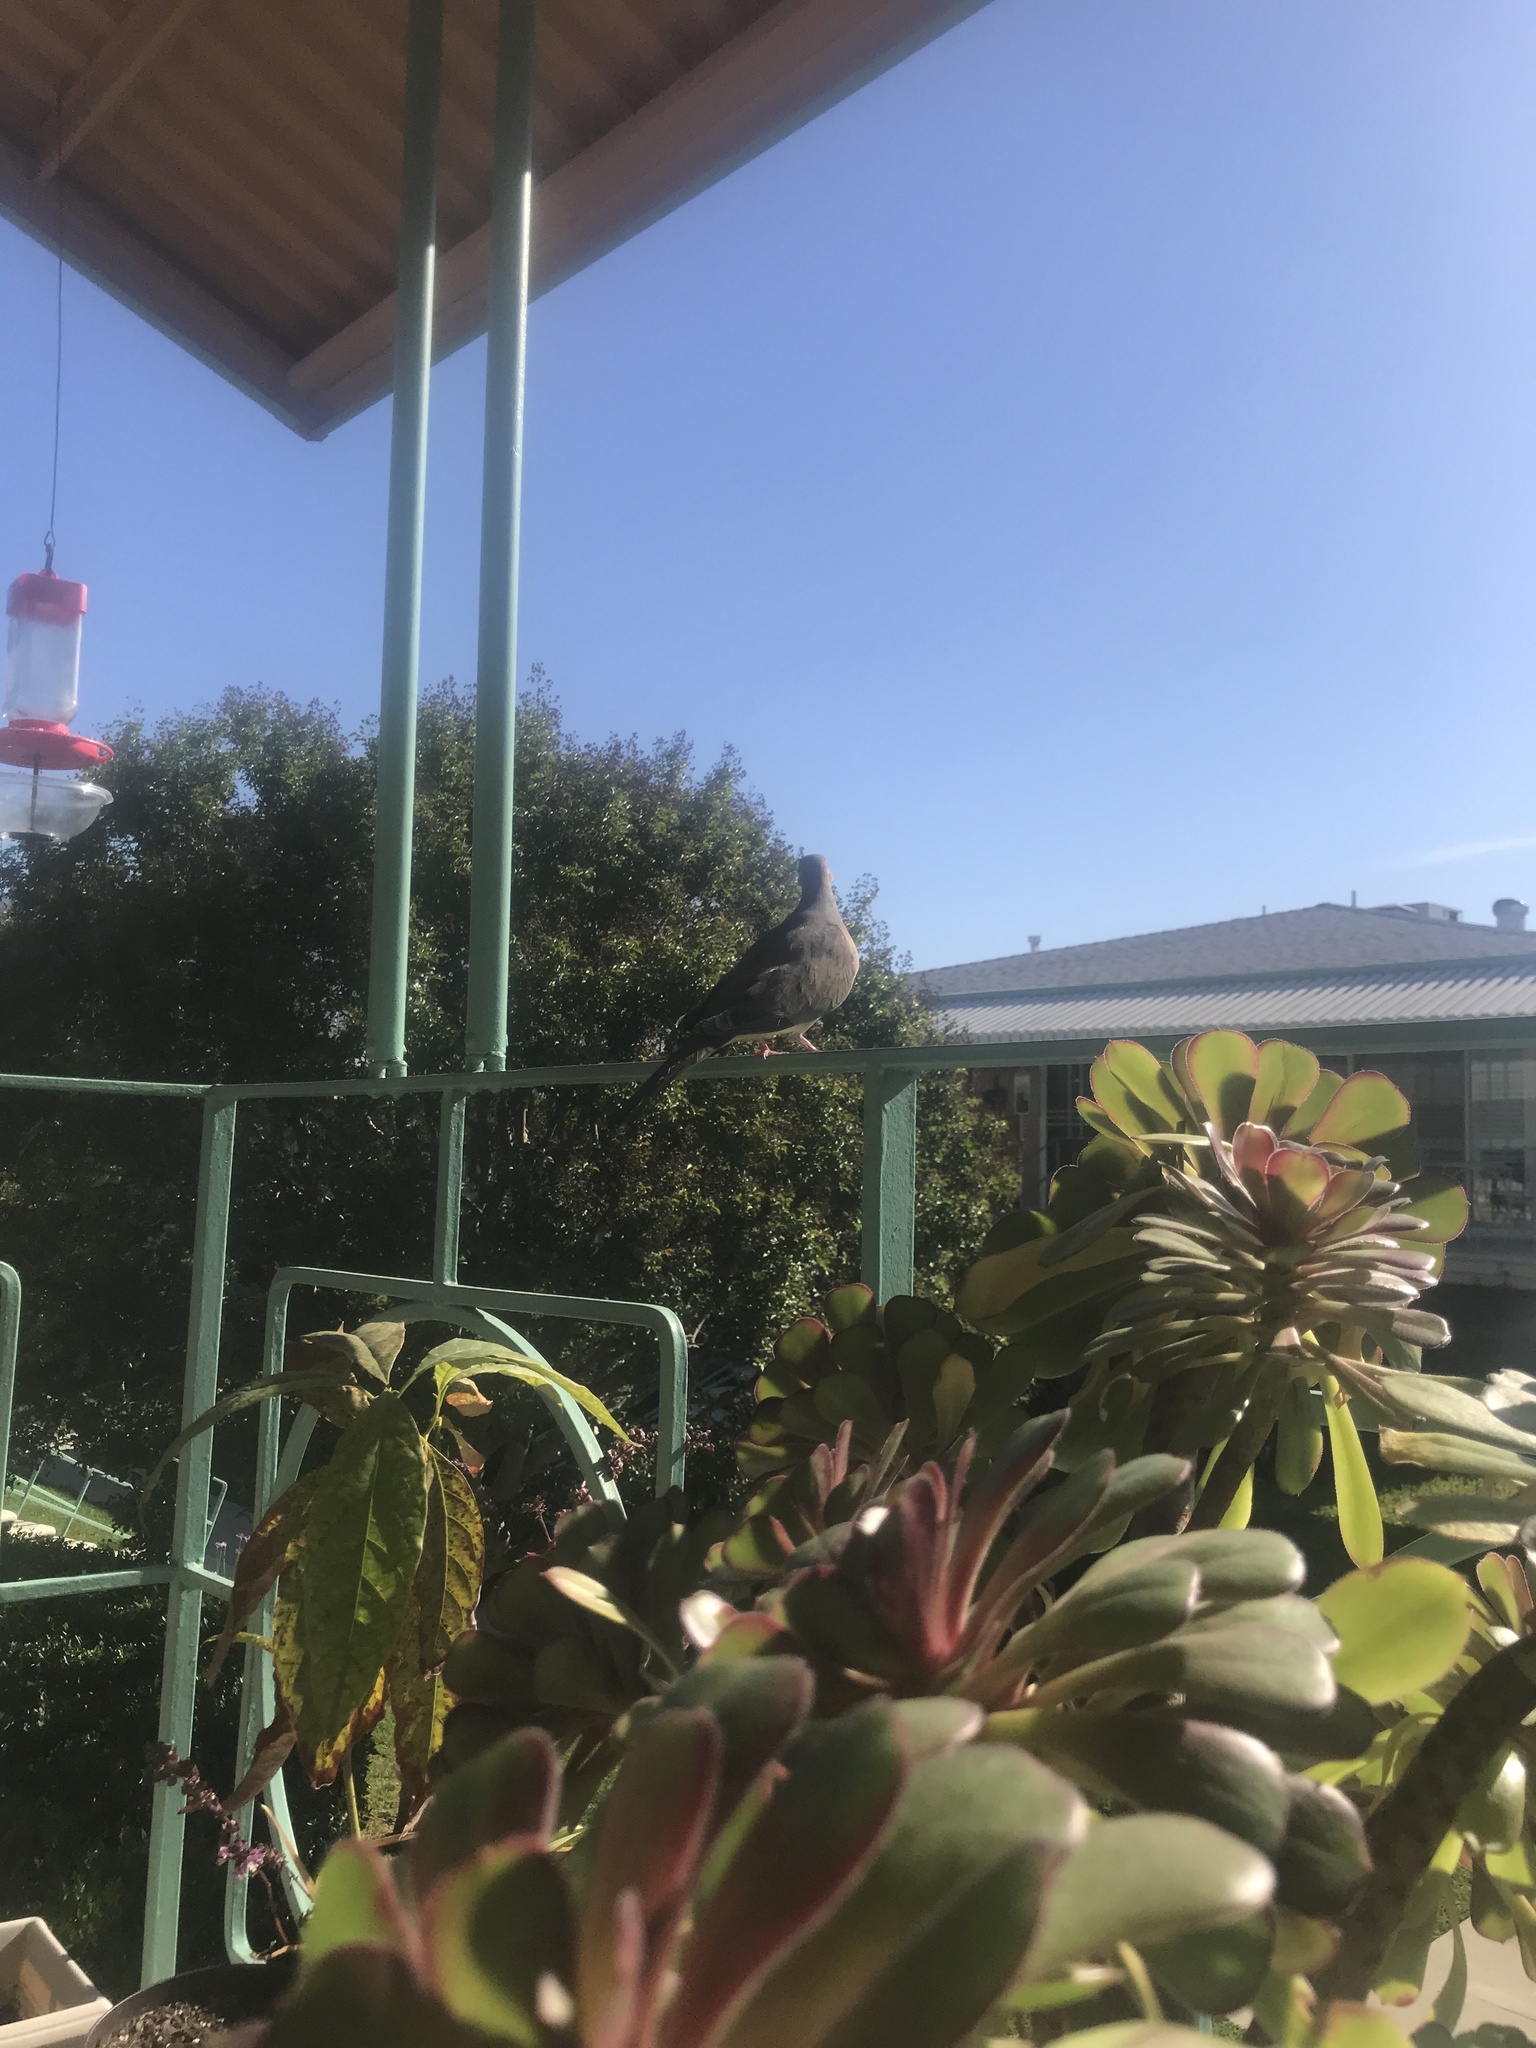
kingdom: Animalia
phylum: Chordata
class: Aves
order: Columbiformes
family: Columbidae
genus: Zenaida
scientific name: Zenaida macroura
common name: Mourning dove
